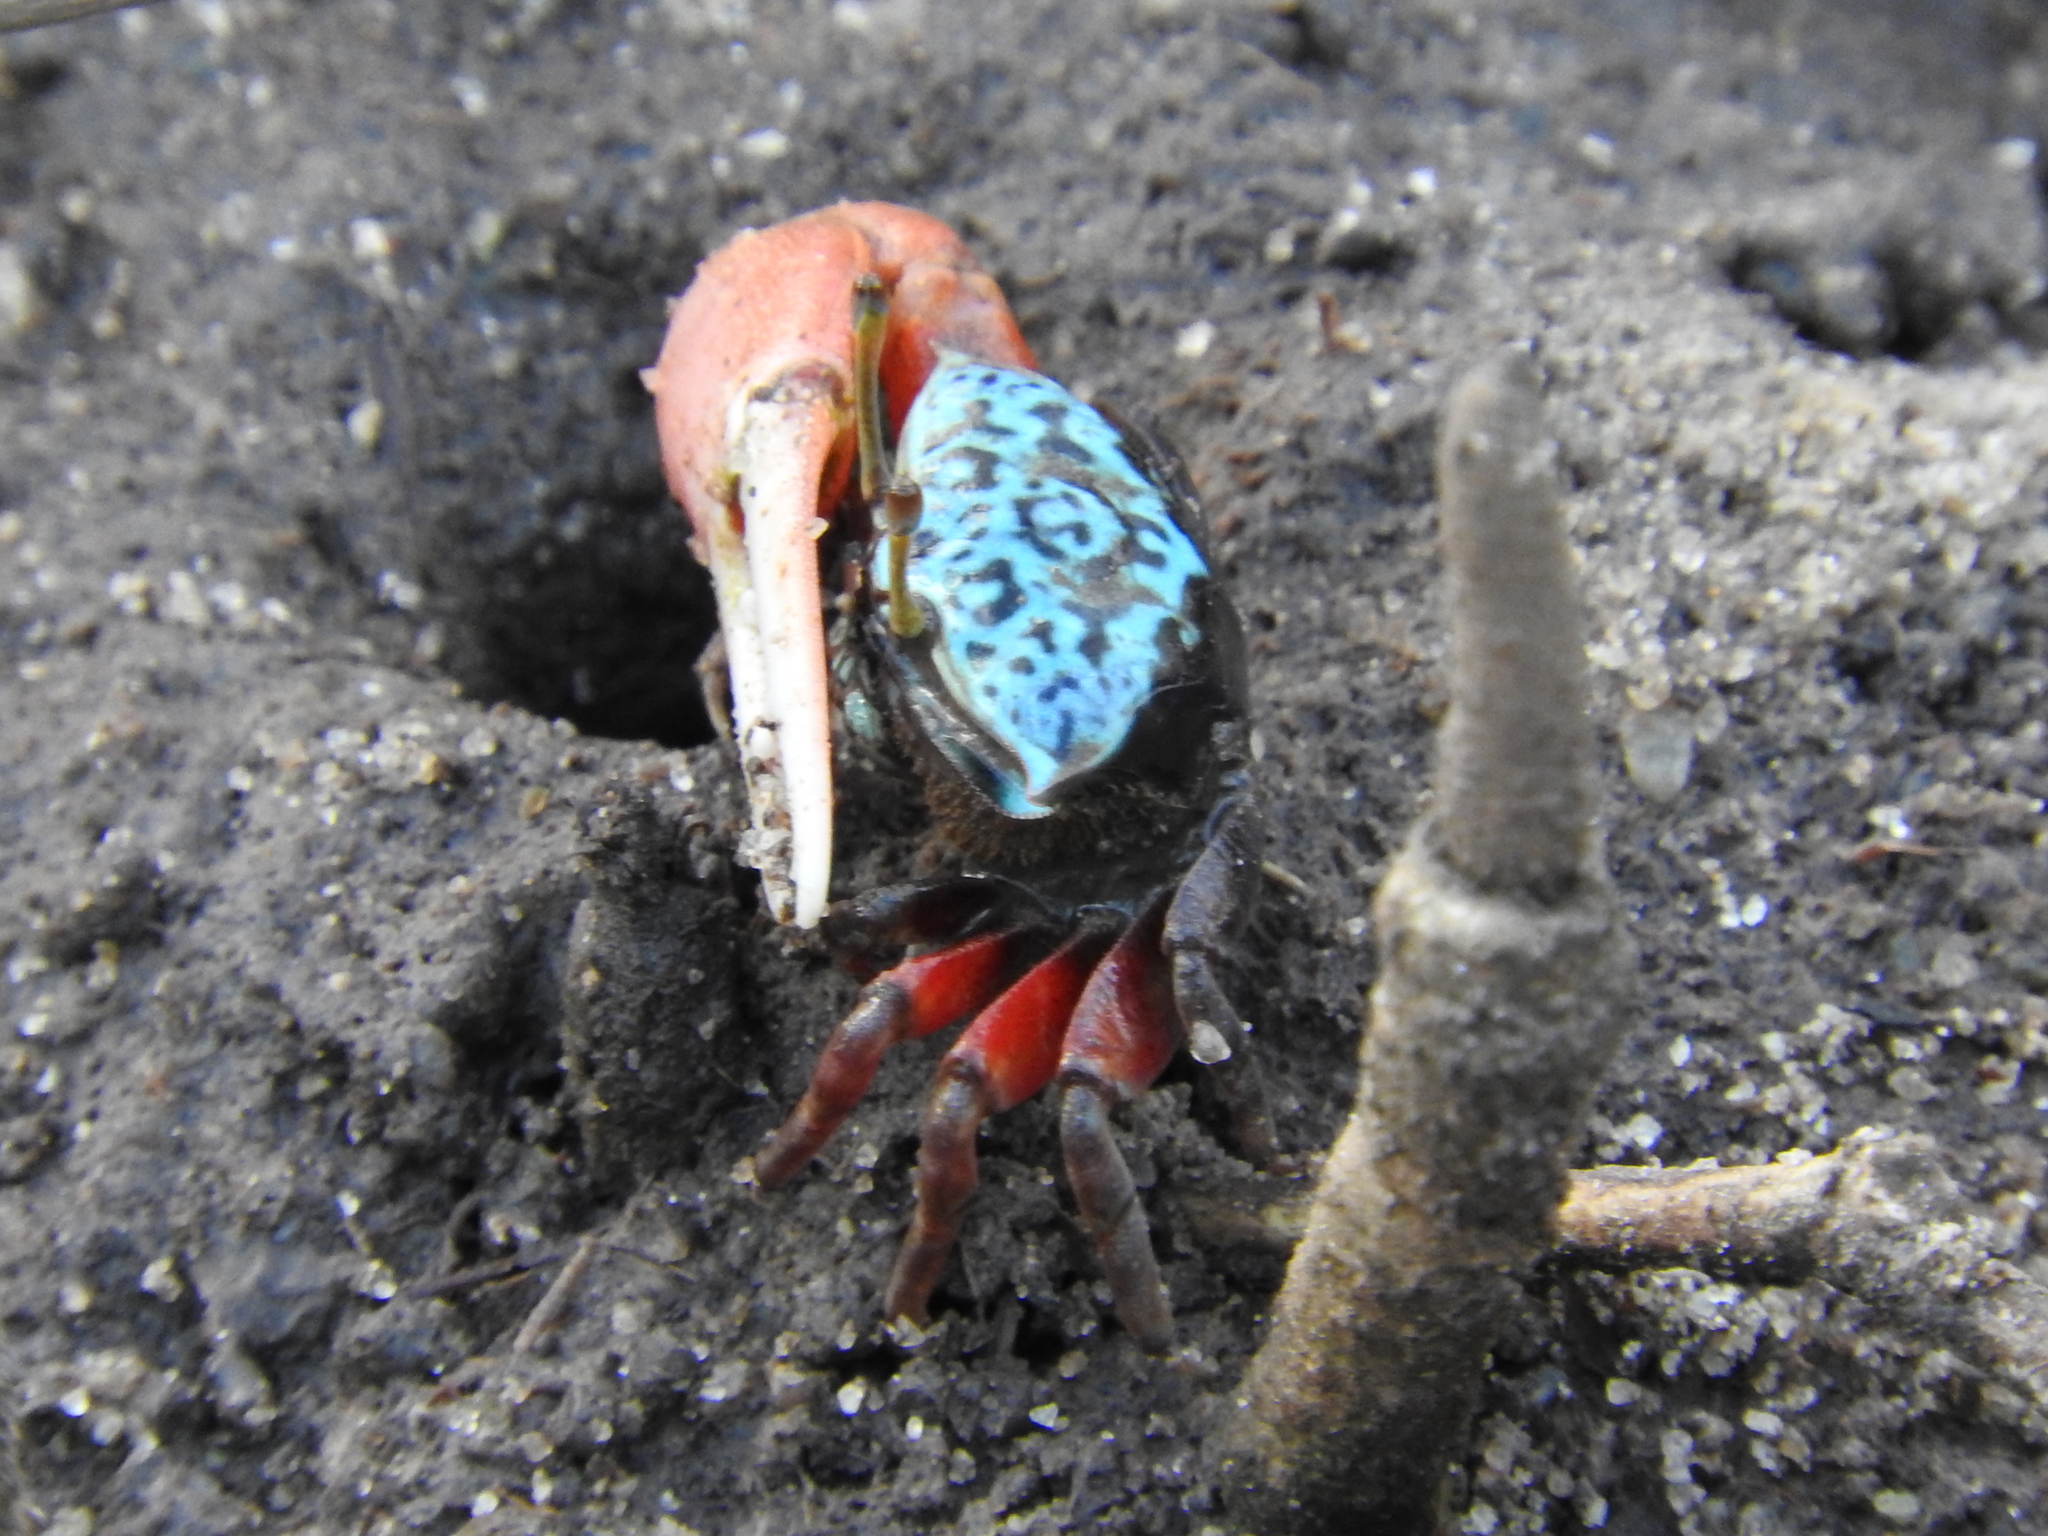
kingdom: Animalia
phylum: Arthropoda
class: Malacostraca
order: Decapoda
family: Ocypodidae
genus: Paraleptuca
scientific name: Paraleptuca chlorophthalmus
